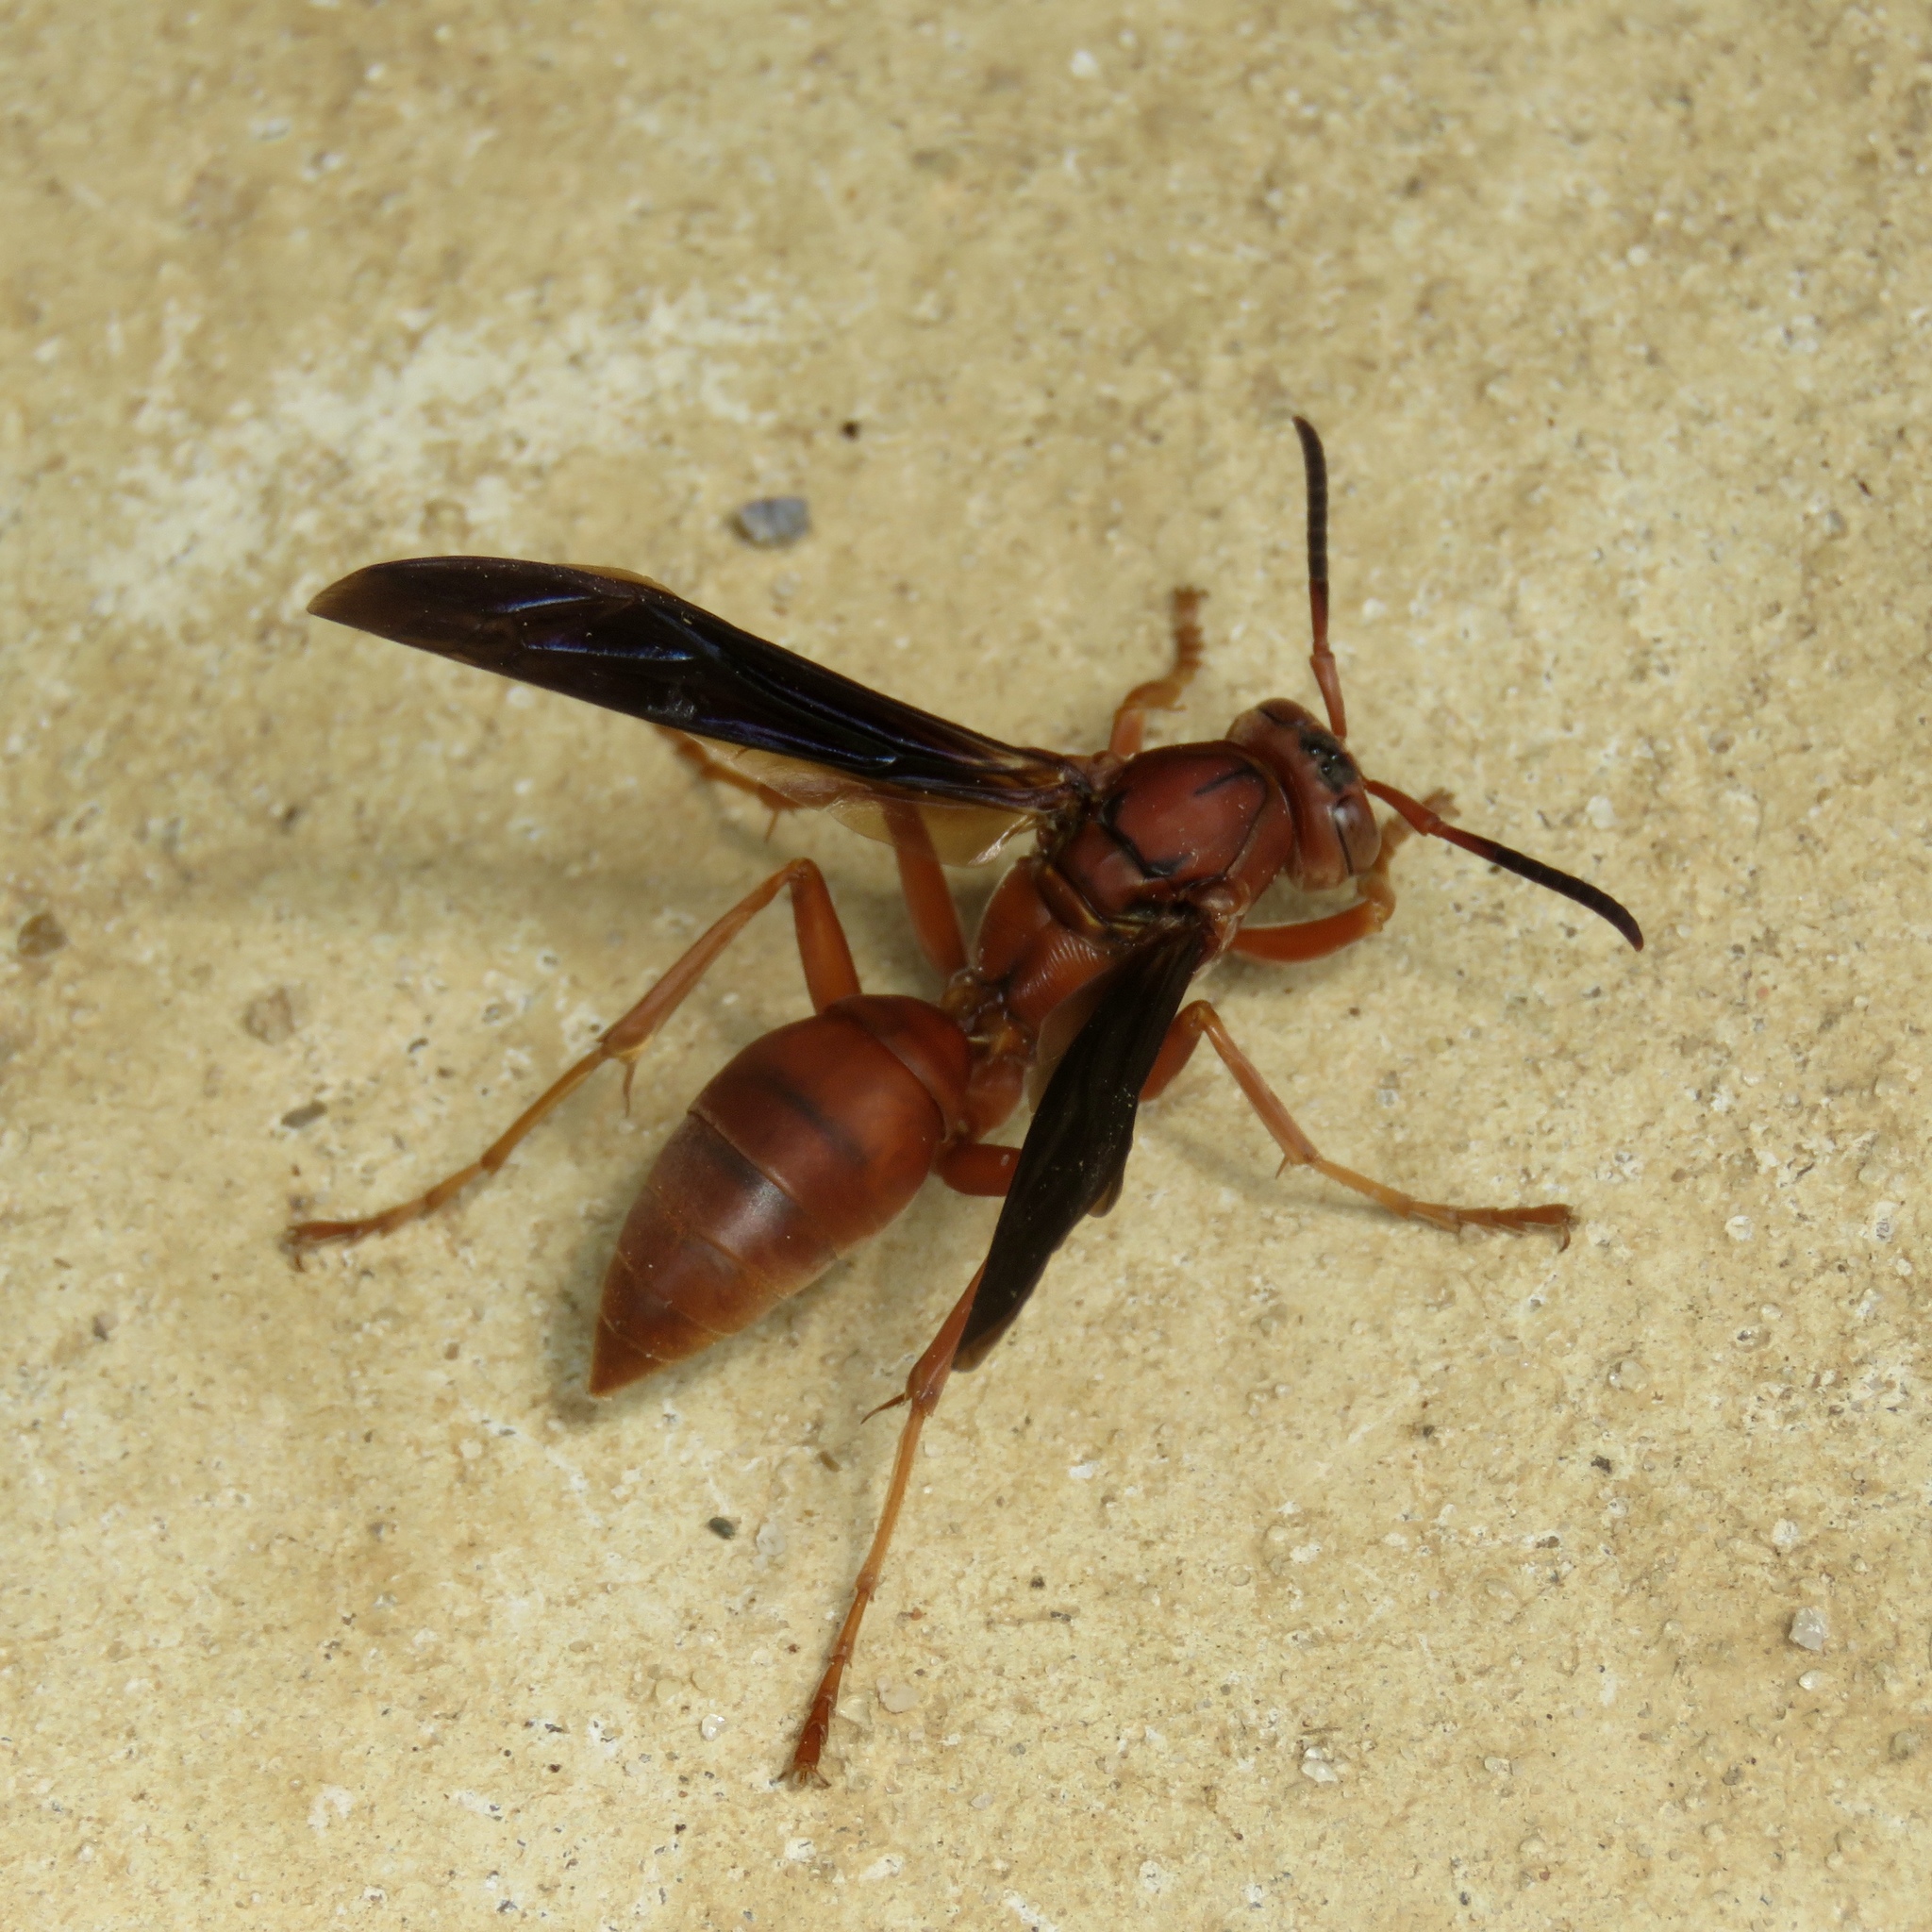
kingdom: Animalia
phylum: Arthropoda
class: Insecta
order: Hymenoptera
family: Eumenidae
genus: Polistes
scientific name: Polistes carolina
